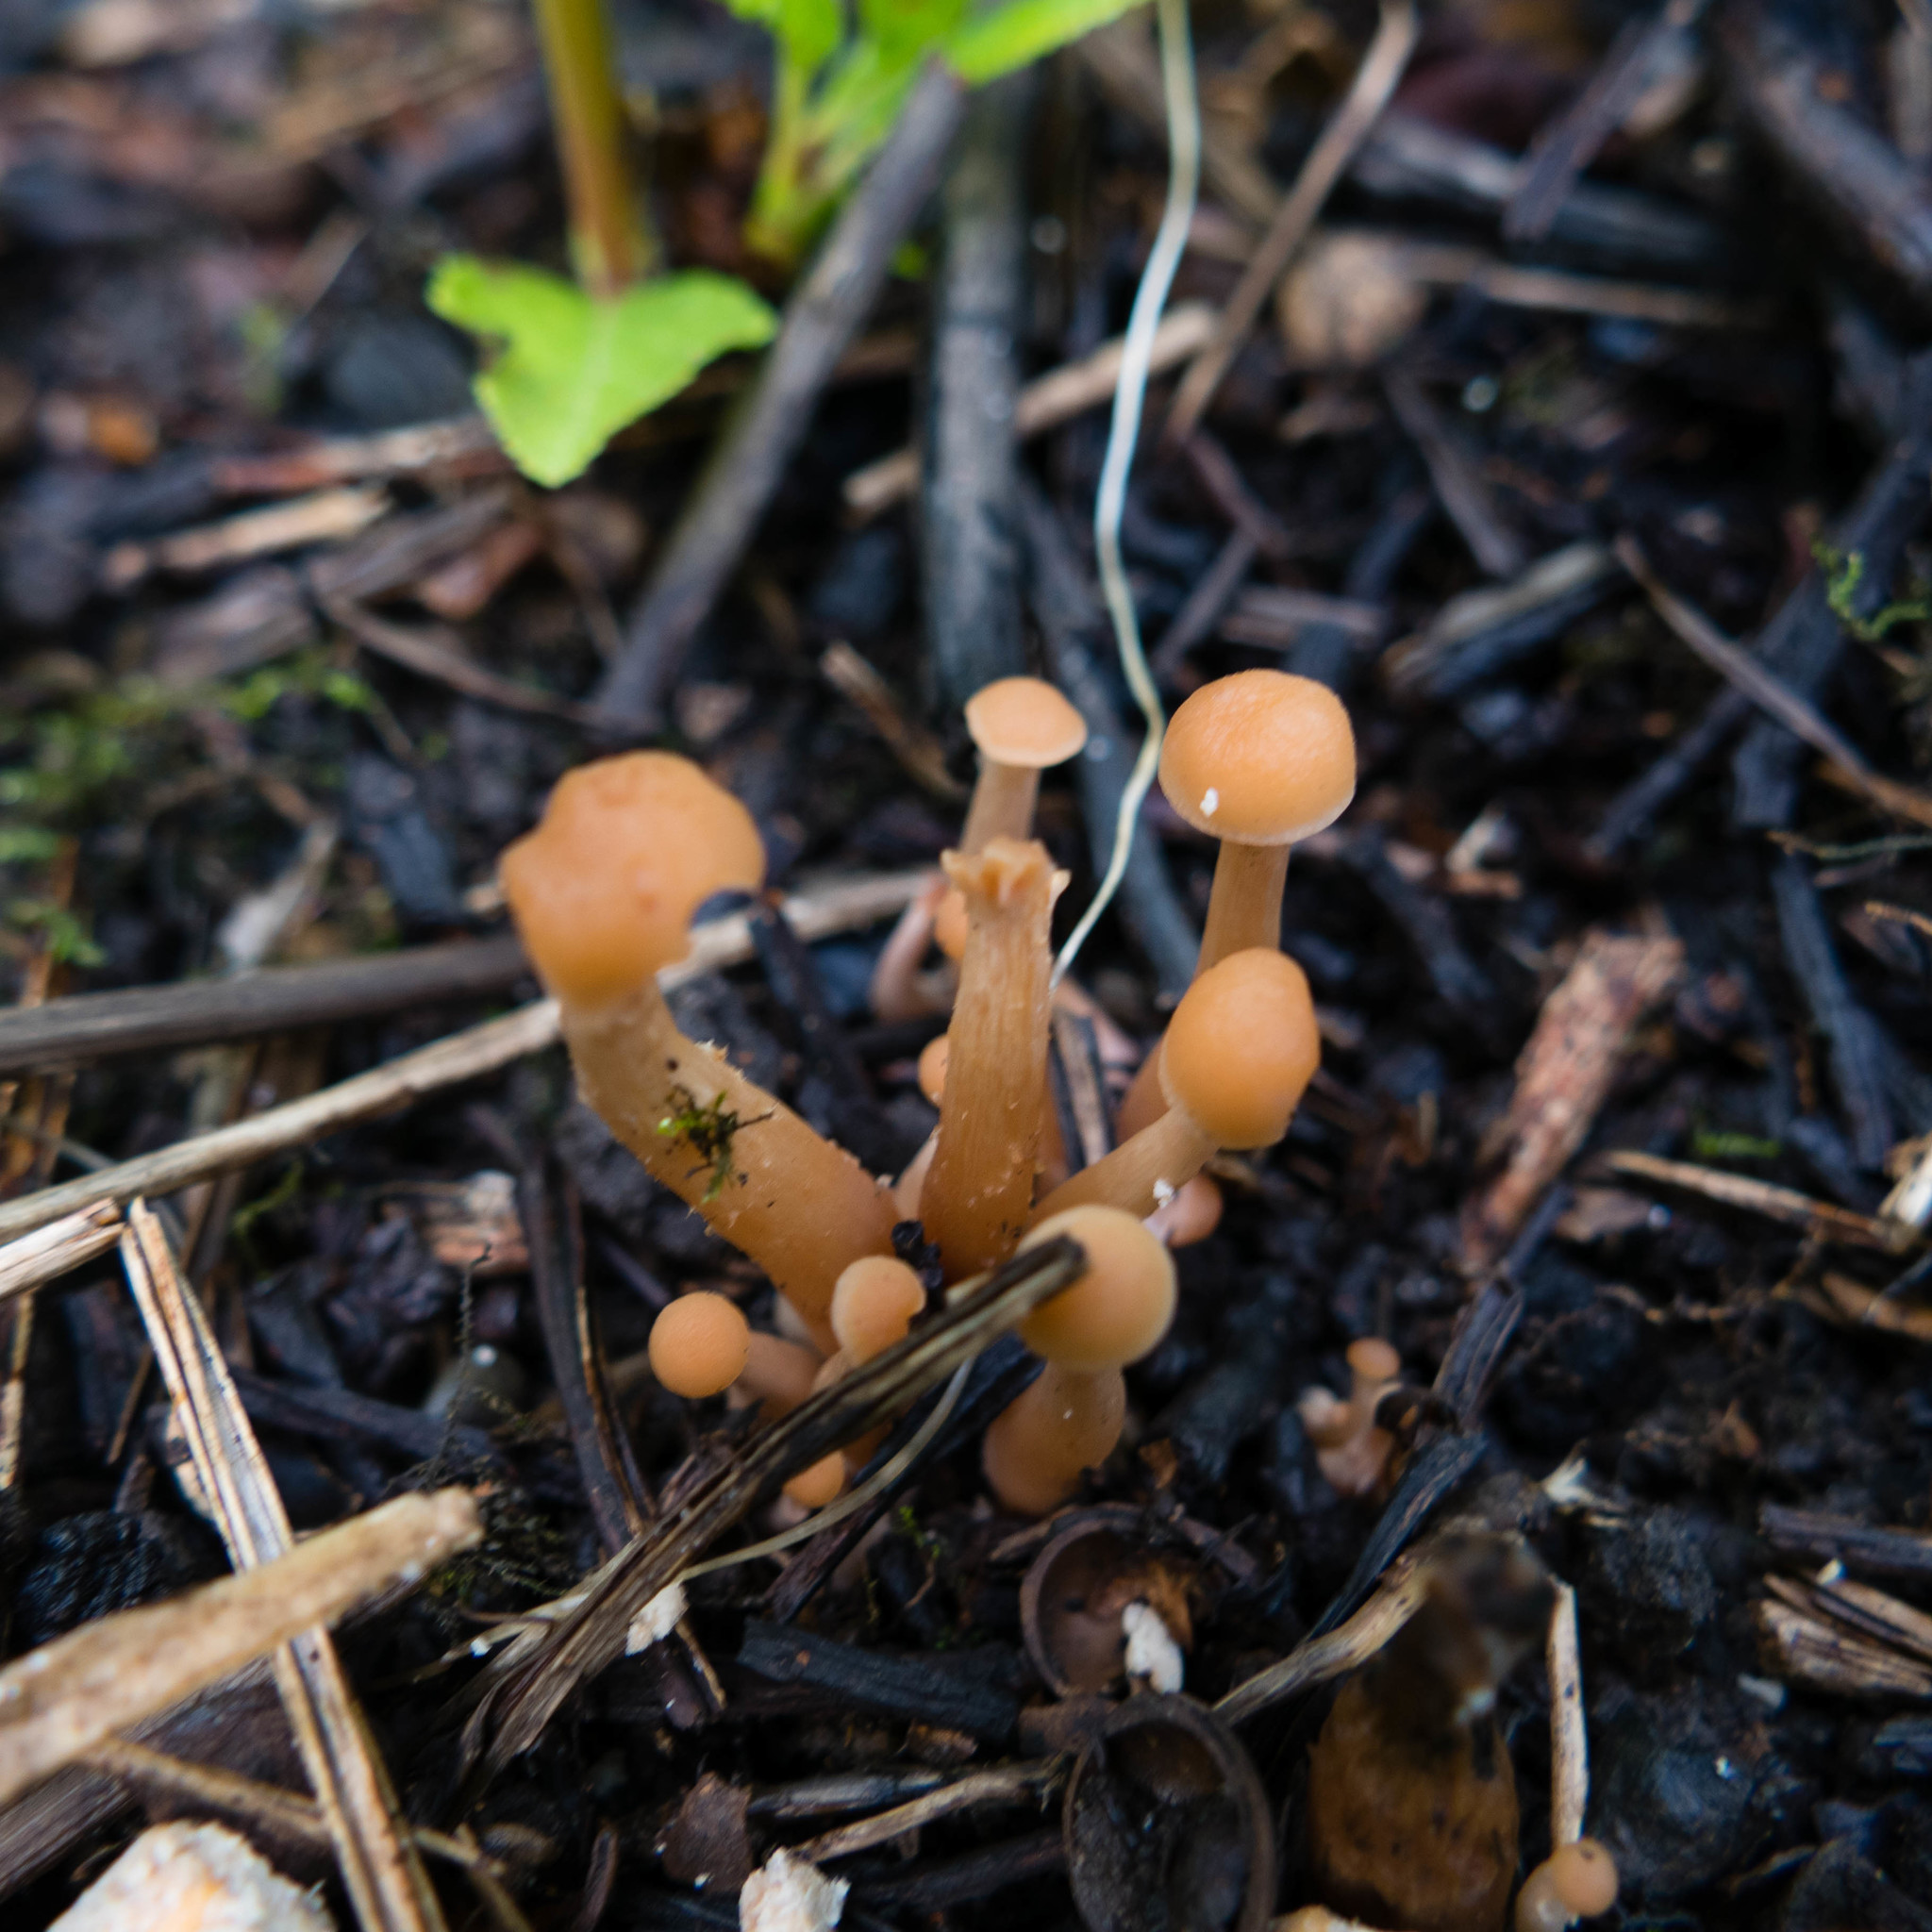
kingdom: Fungi
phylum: Basidiomycota
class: Agaricomycetes
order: Agaricales
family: Hydnangiaceae
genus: Laccaria
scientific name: Laccaria laccata
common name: Deceiver
